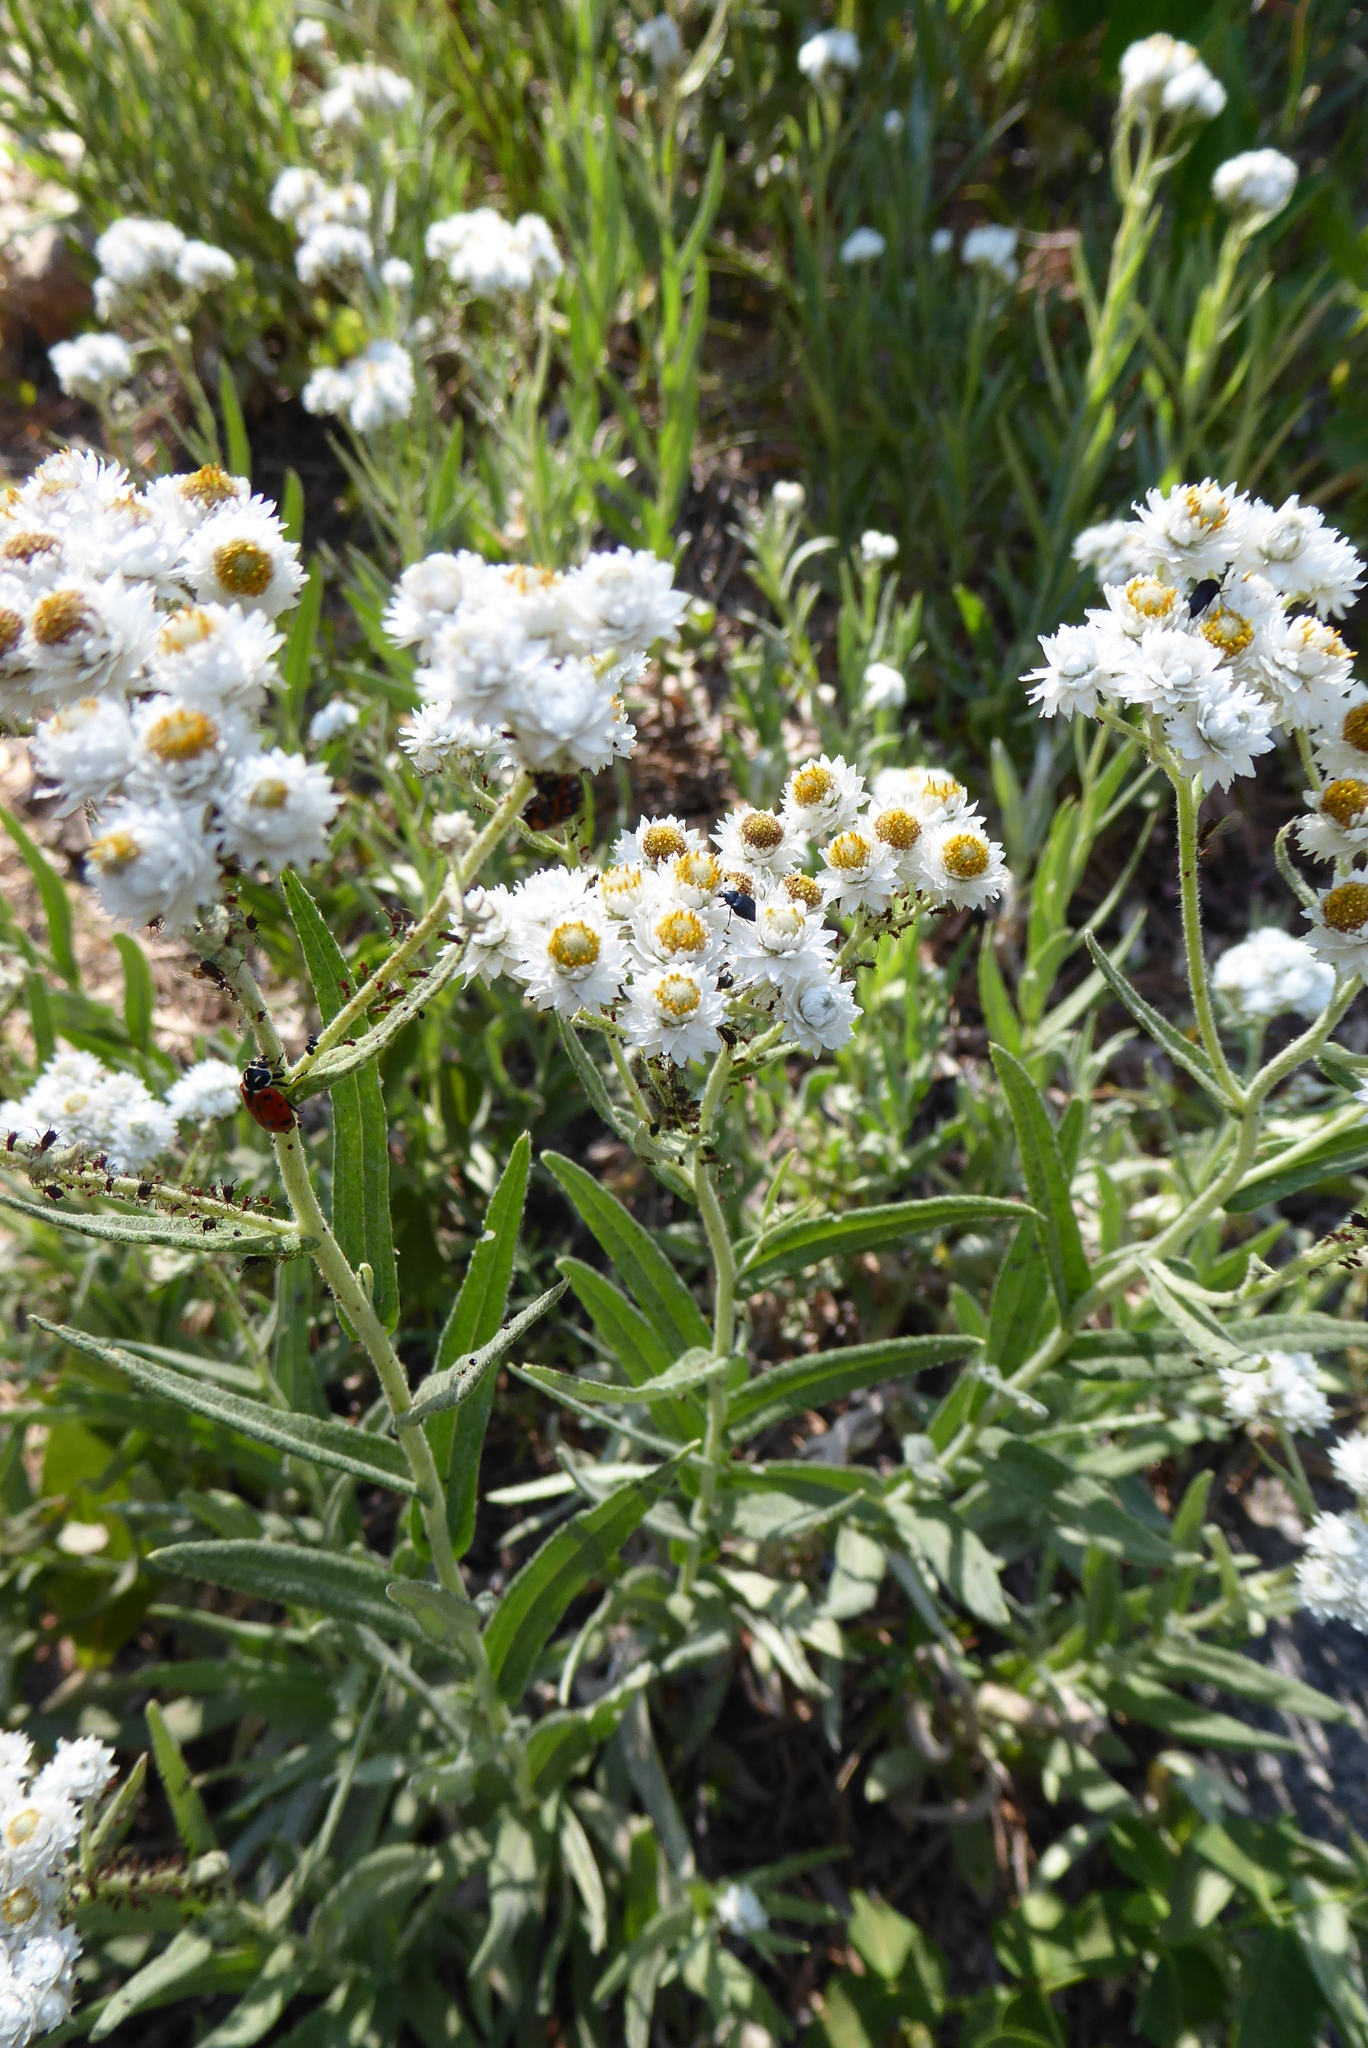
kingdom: Plantae
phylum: Tracheophyta
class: Magnoliopsida
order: Asterales
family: Asteraceae
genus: Anaphalis
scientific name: Anaphalis margaritacea
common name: Pearly everlasting
